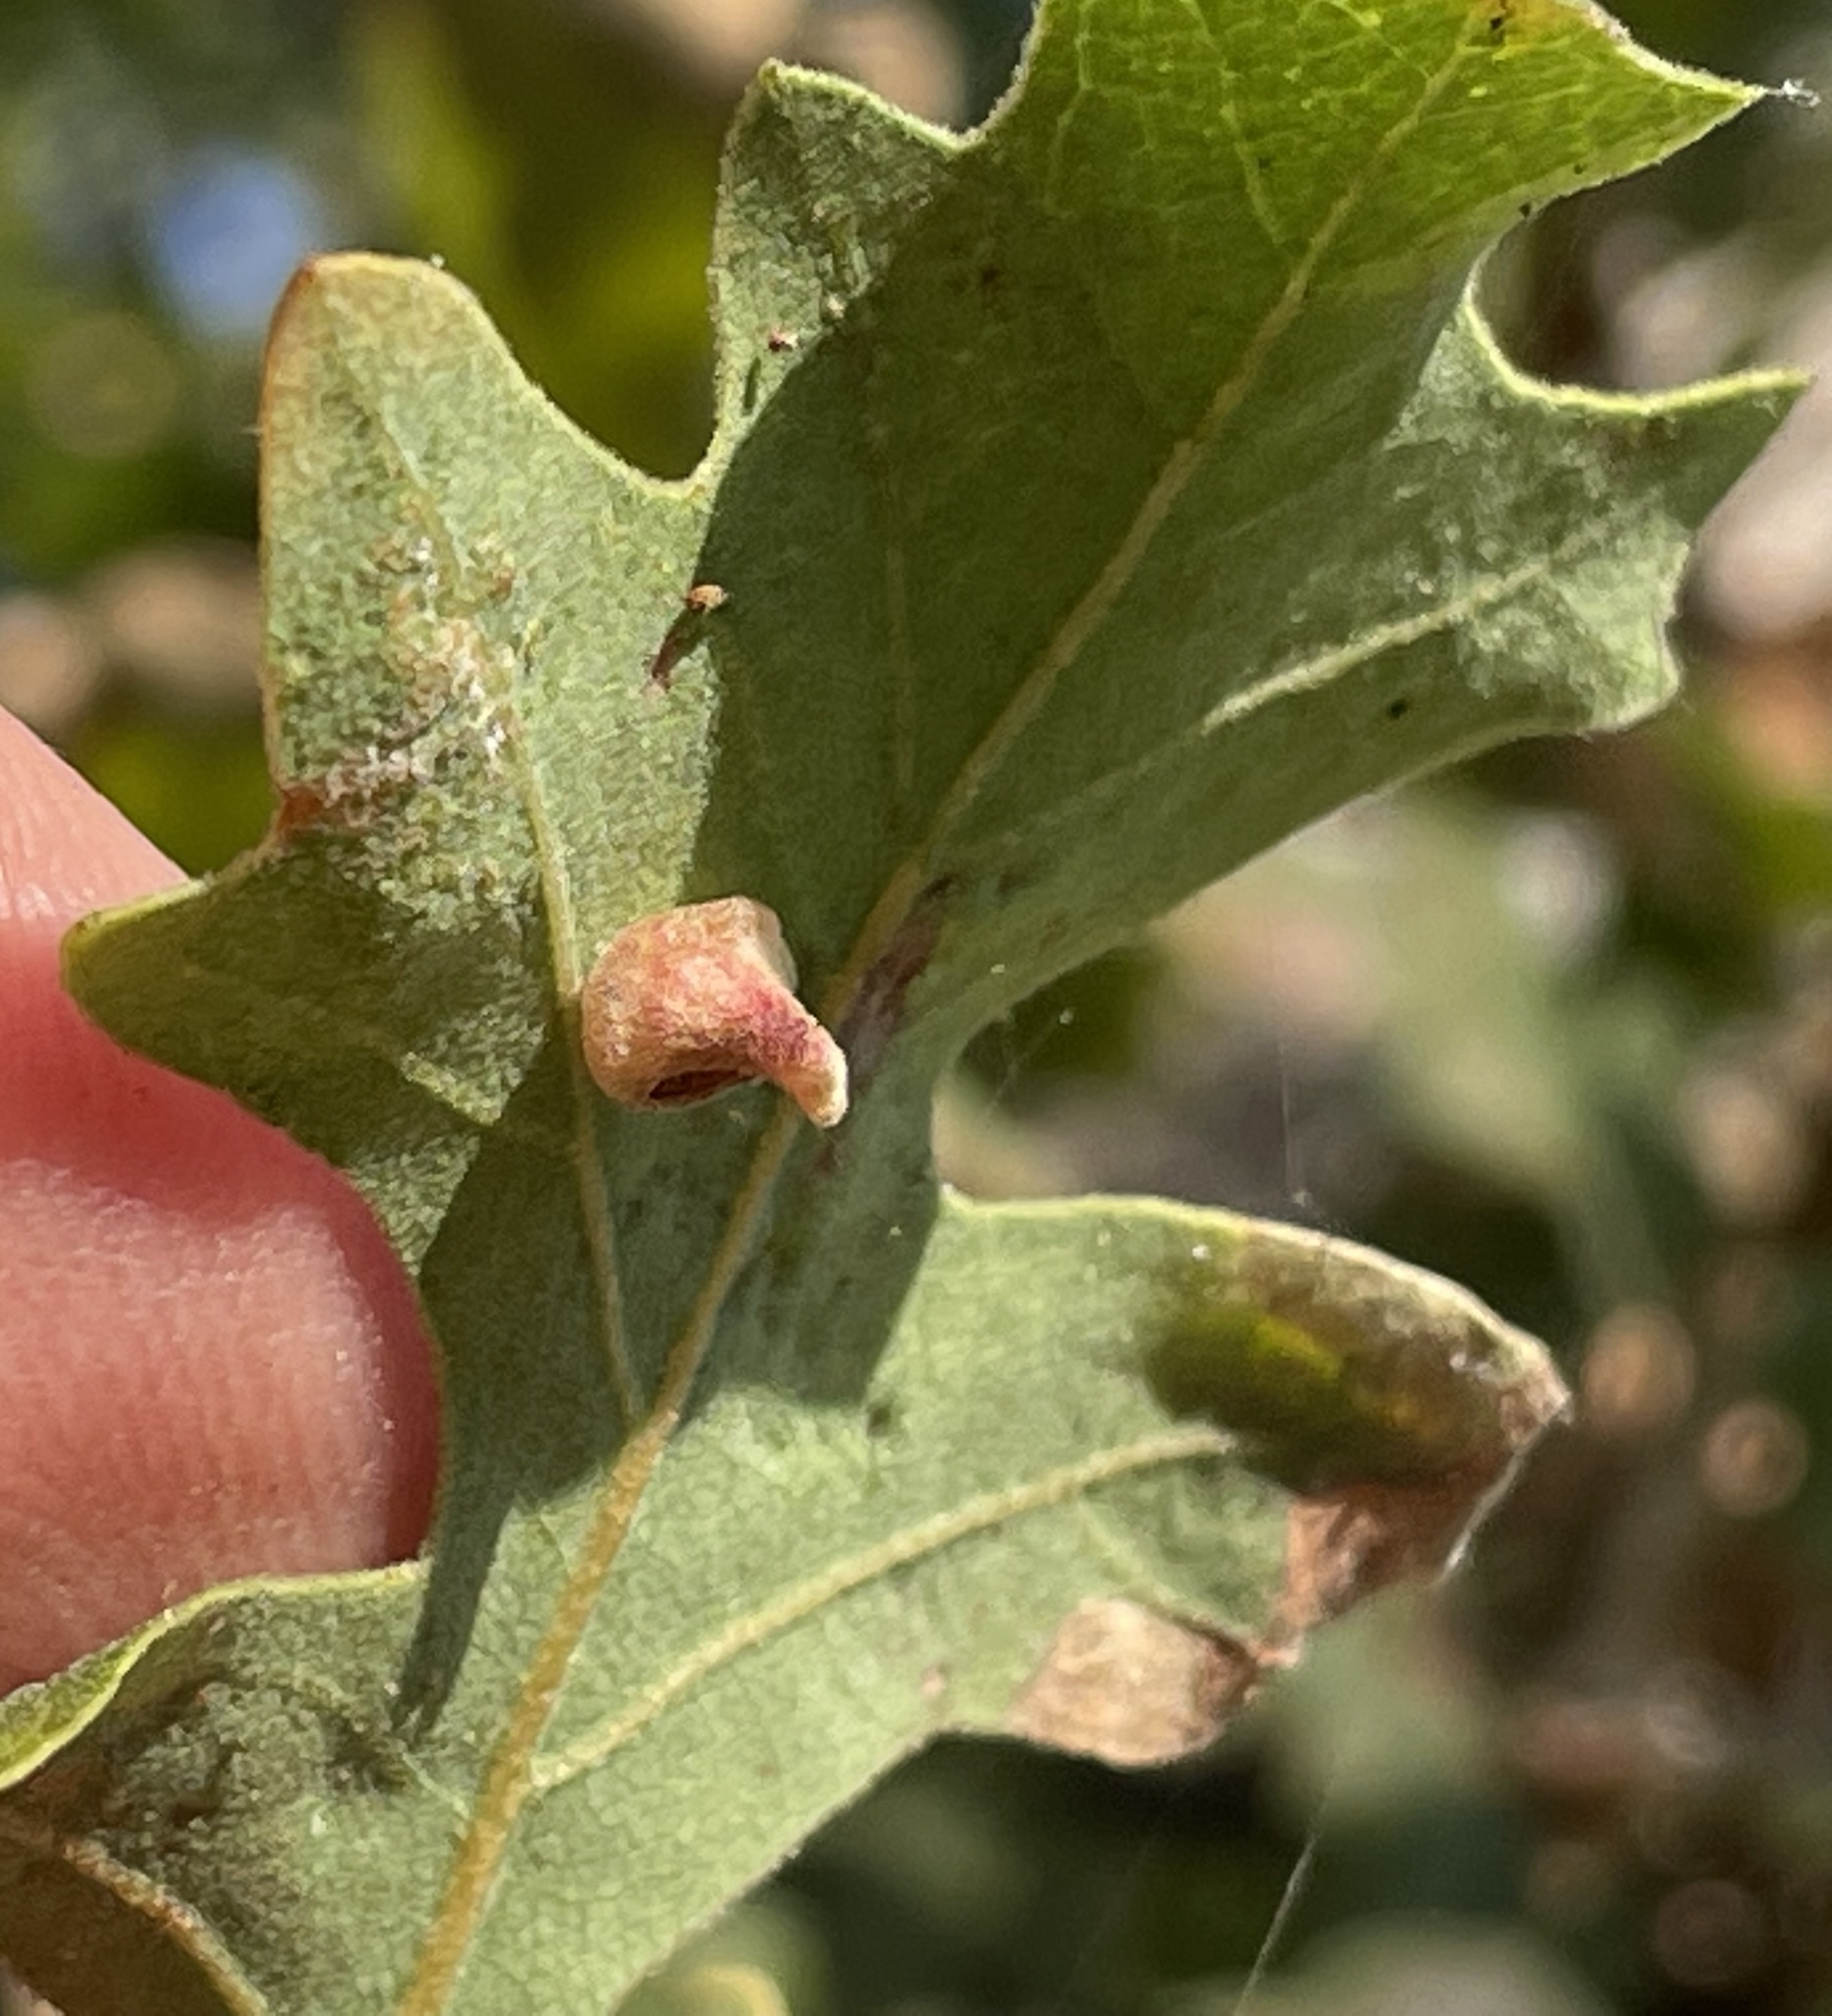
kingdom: Animalia
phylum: Arthropoda
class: Insecta
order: Hymenoptera
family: Cynipidae
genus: Andricus
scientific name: Andricus
